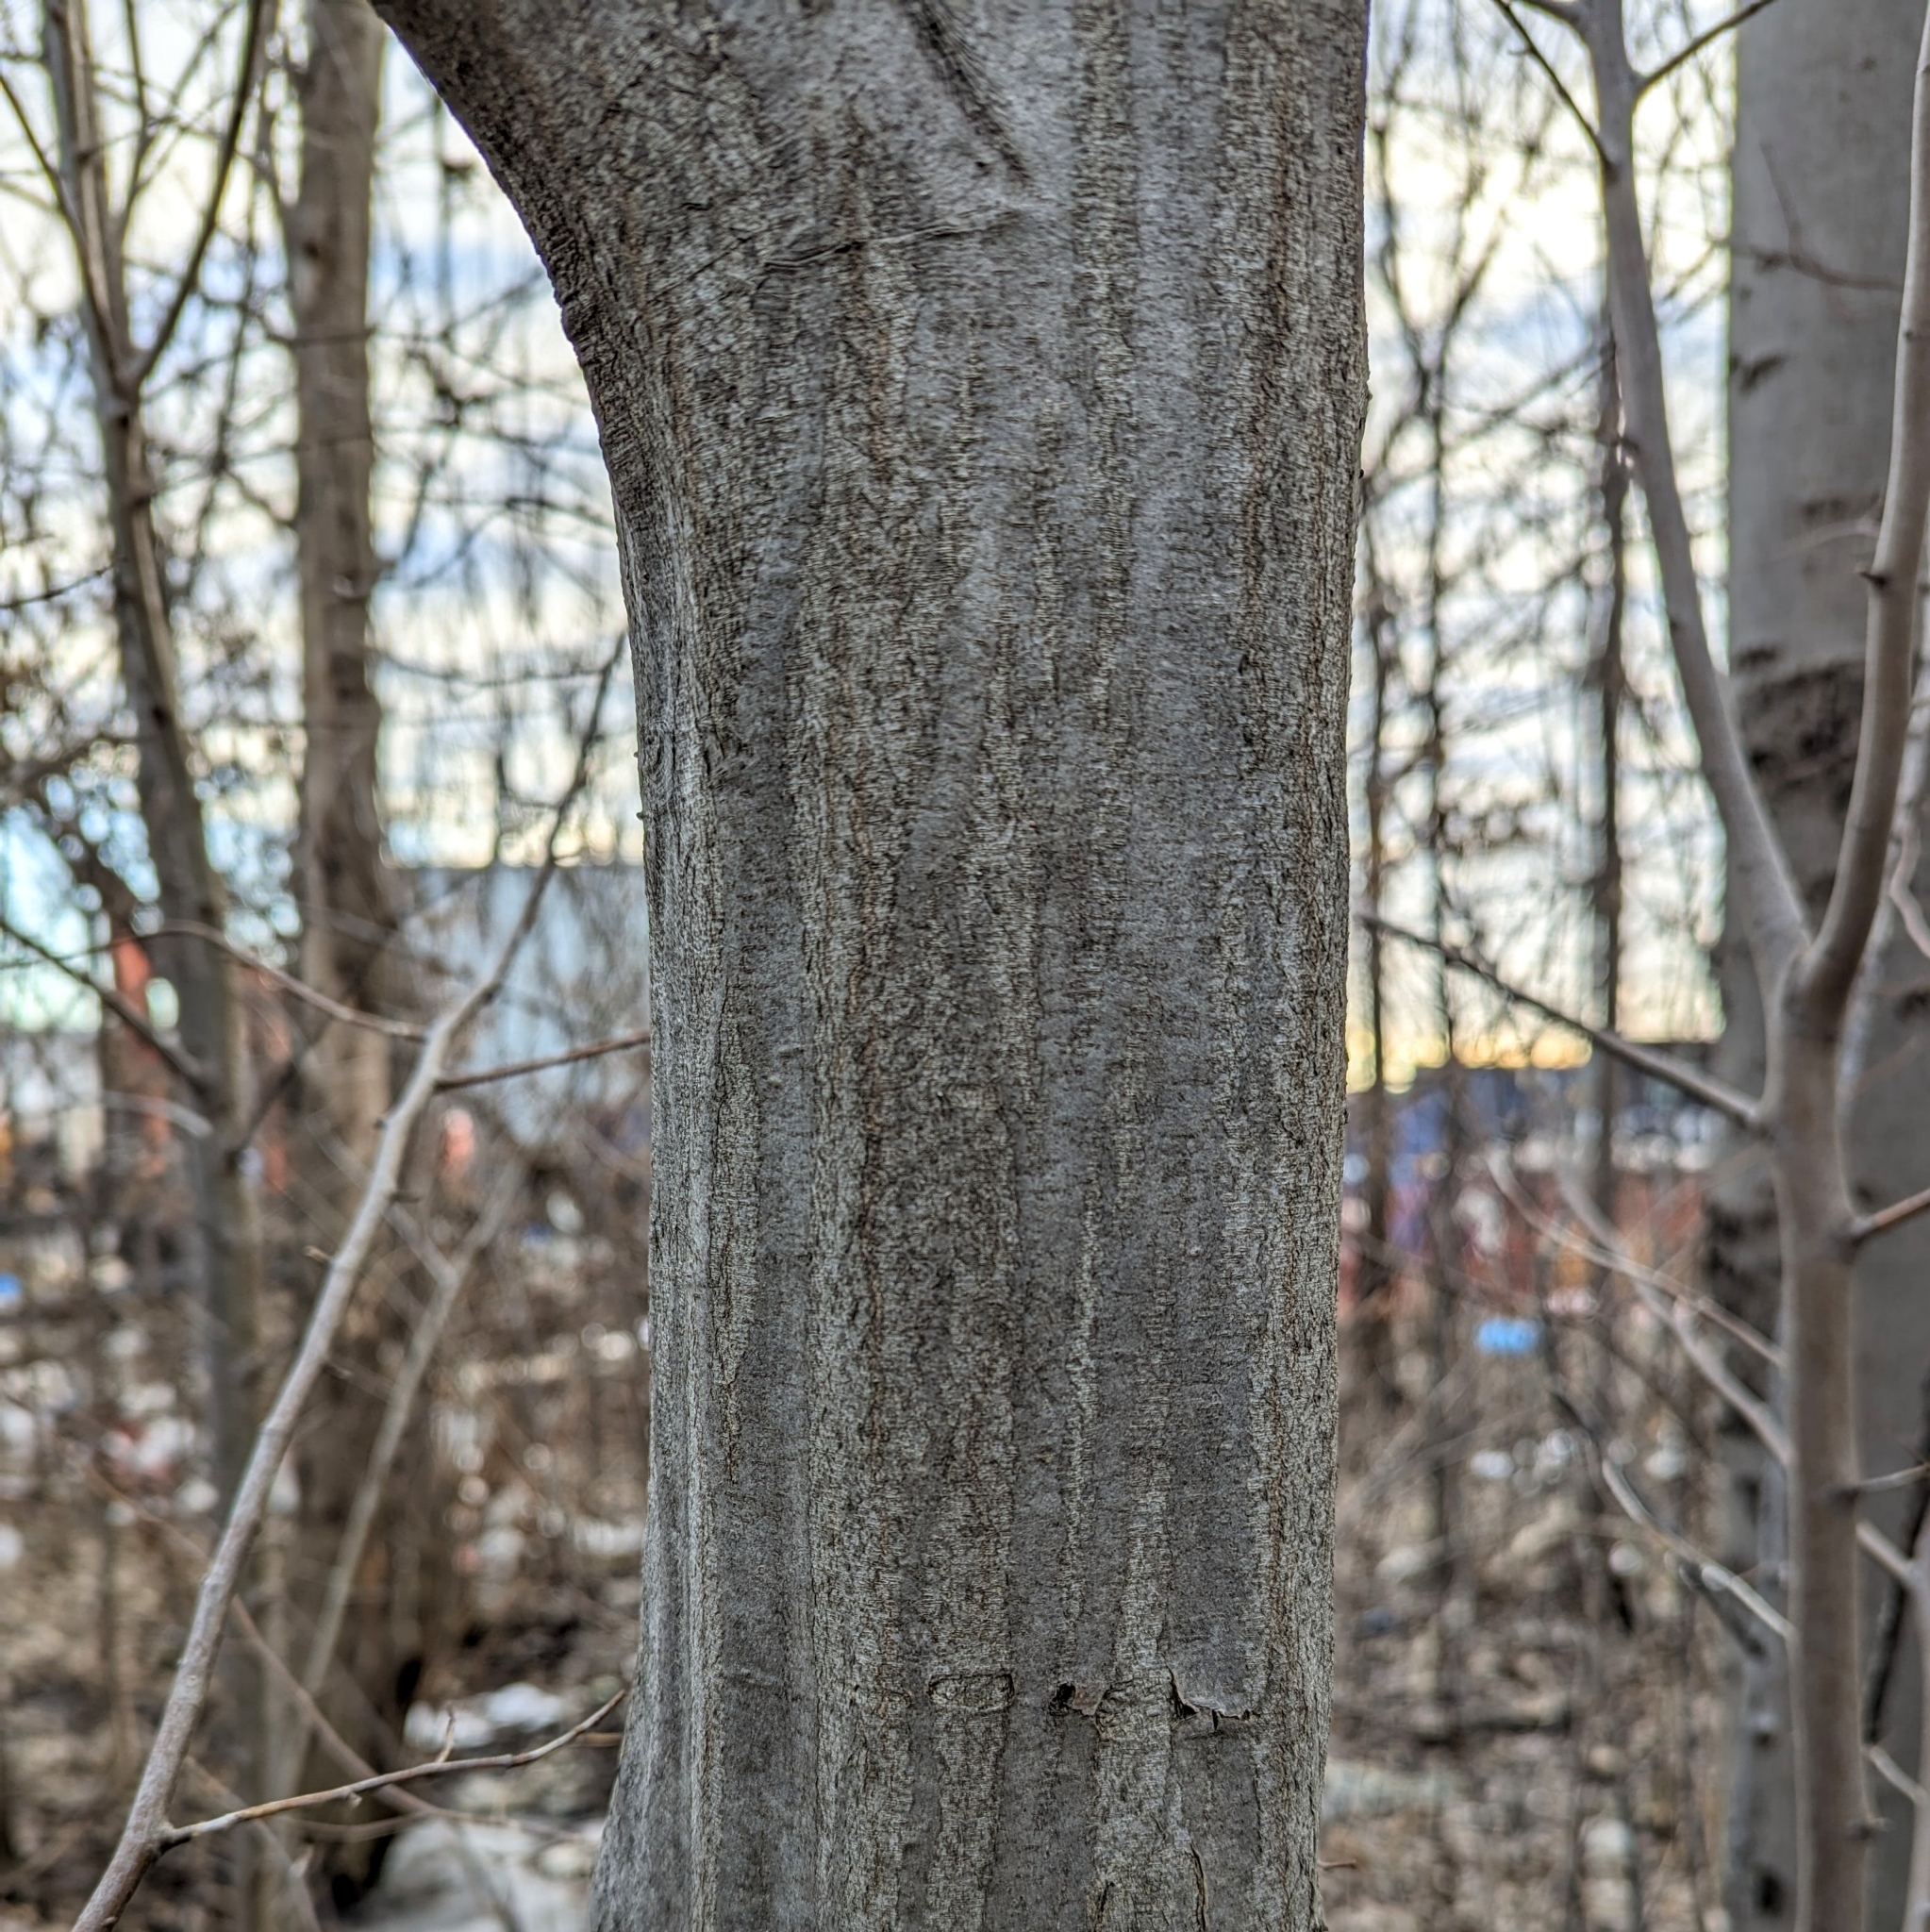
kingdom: Plantae
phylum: Tracheophyta
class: Magnoliopsida
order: Fagales
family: Betulaceae
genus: Carpinus
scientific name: Carpinus caroliniana
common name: American hornbeam
